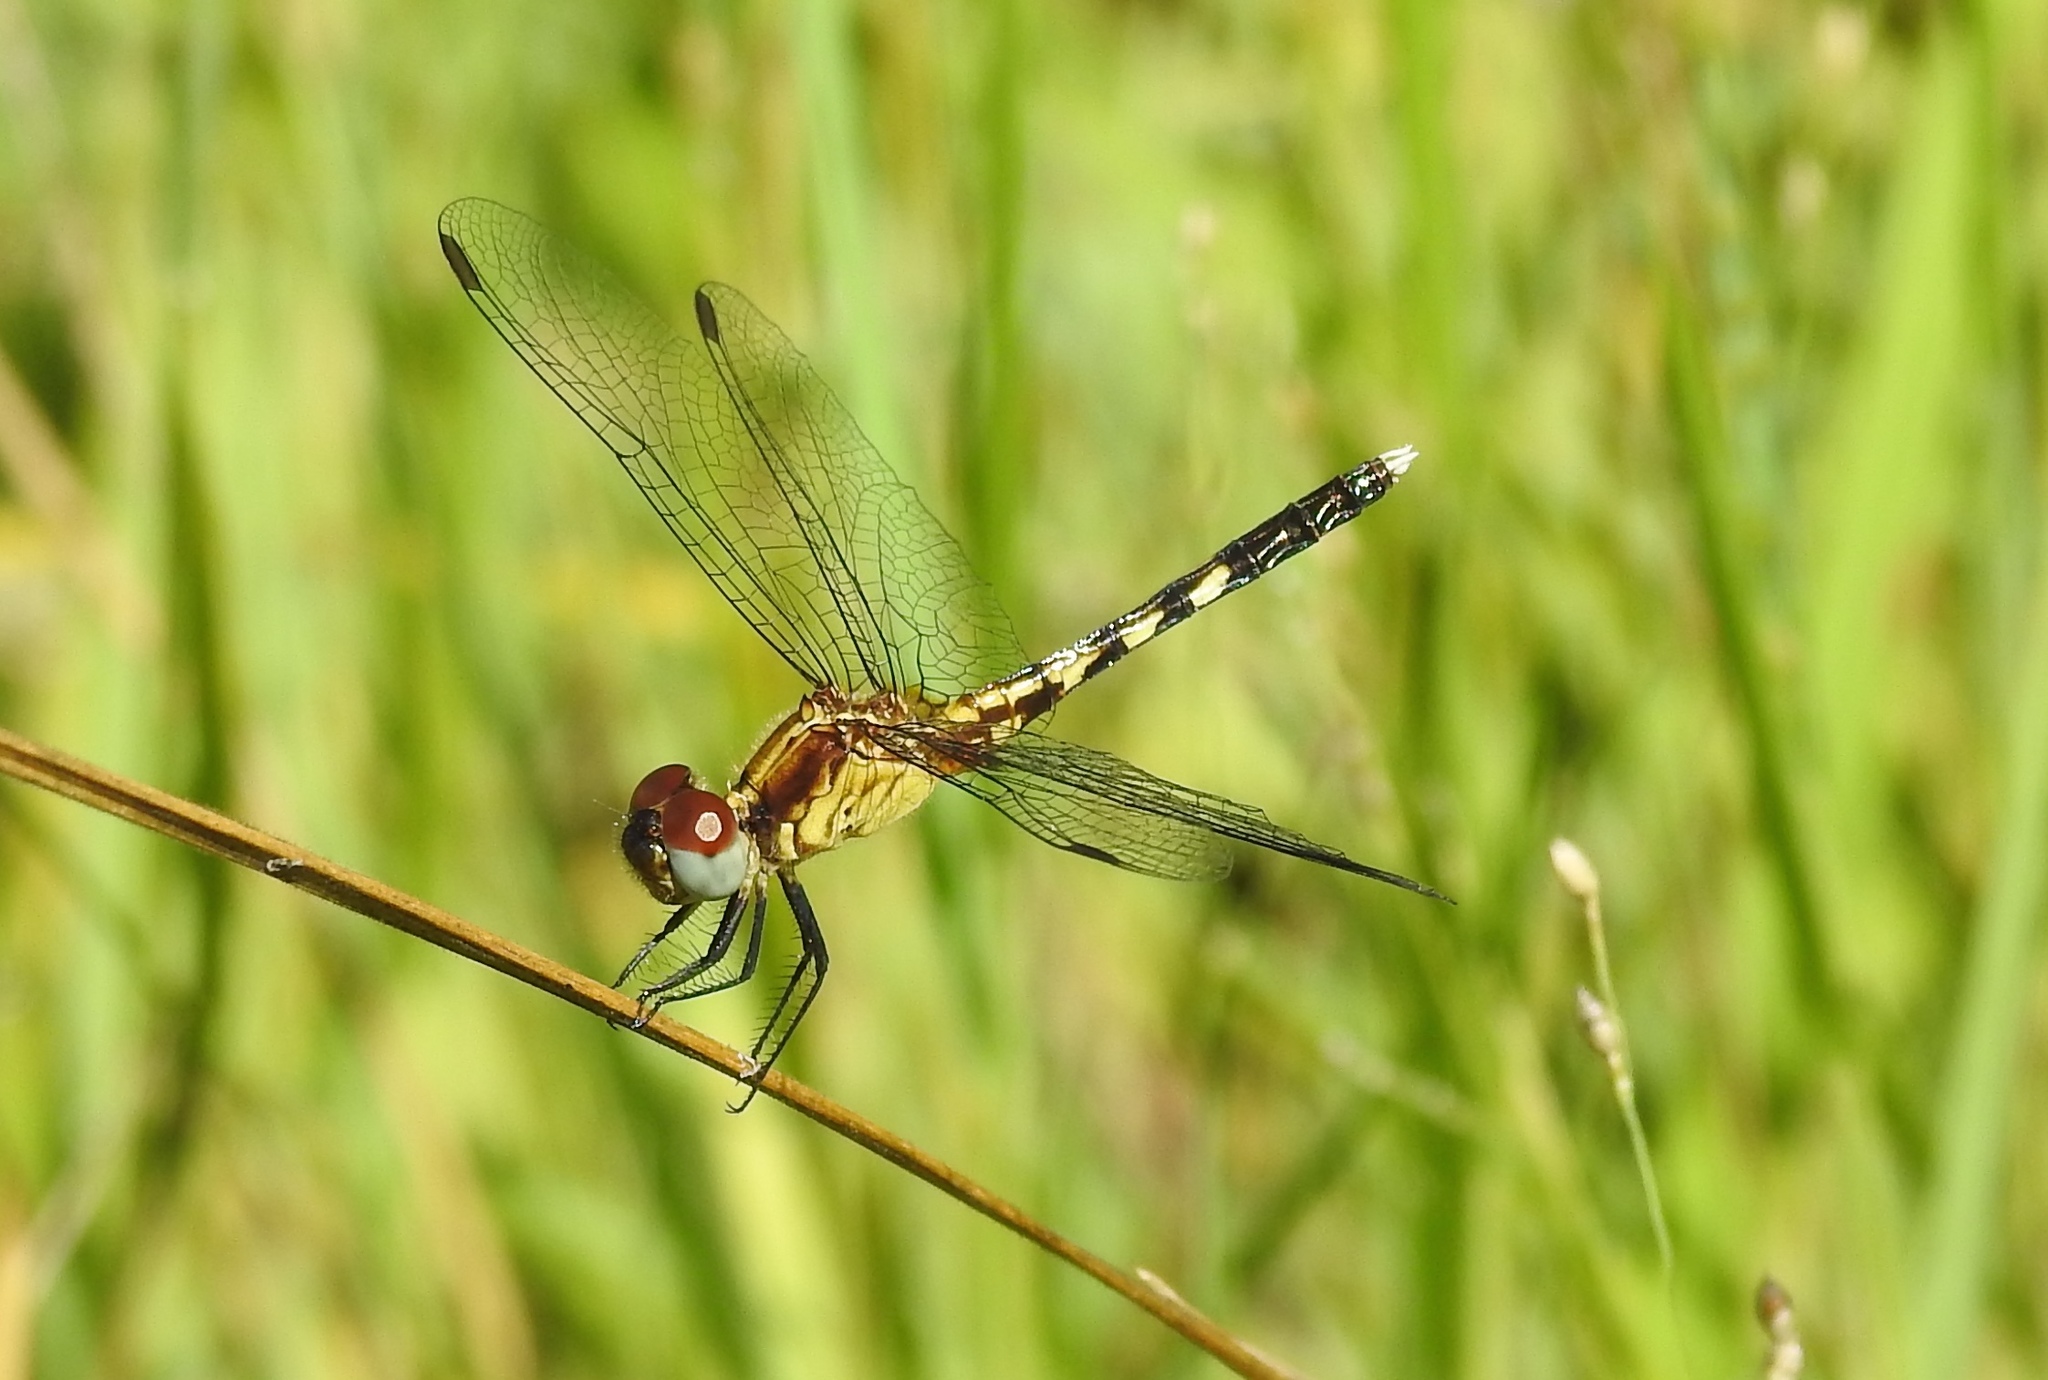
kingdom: Animalia
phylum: Arthropoda
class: Insecta
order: Odonata
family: Libellulidae
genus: Erythrodiplax
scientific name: Erythrodiplax minuscula
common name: Little blue dragonlet
